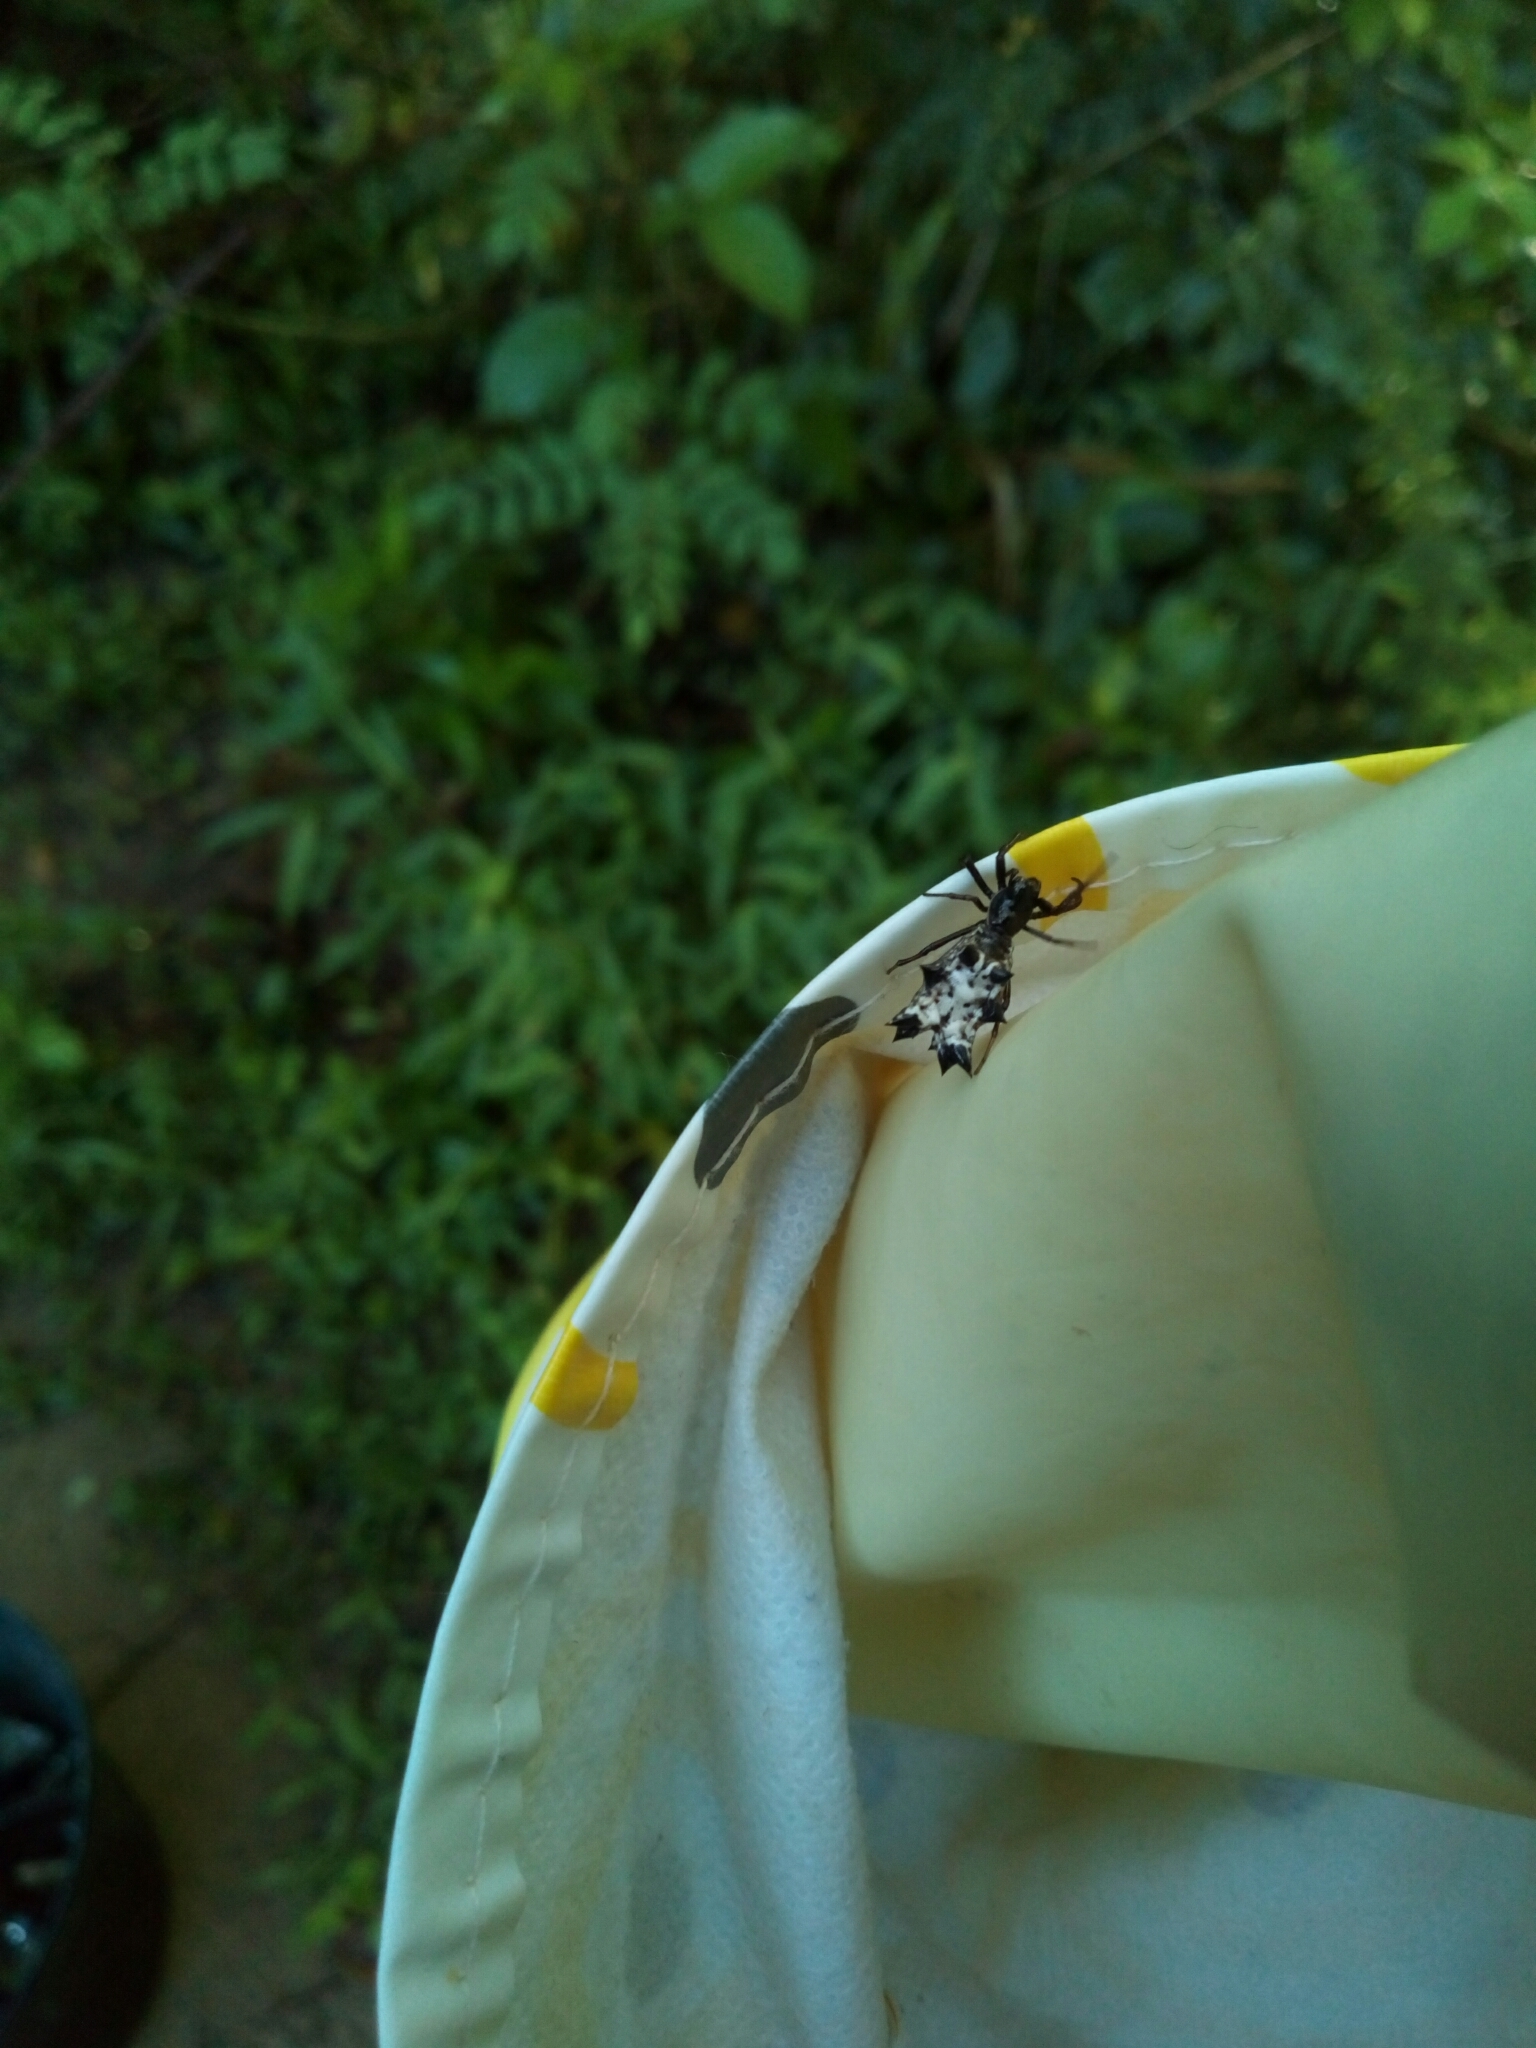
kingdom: Animalia
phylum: Arthropoda
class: Arachnida
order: Araneae
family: Araneidae
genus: Micrathena
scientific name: Micrathena gracilis
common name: Orb weavers
